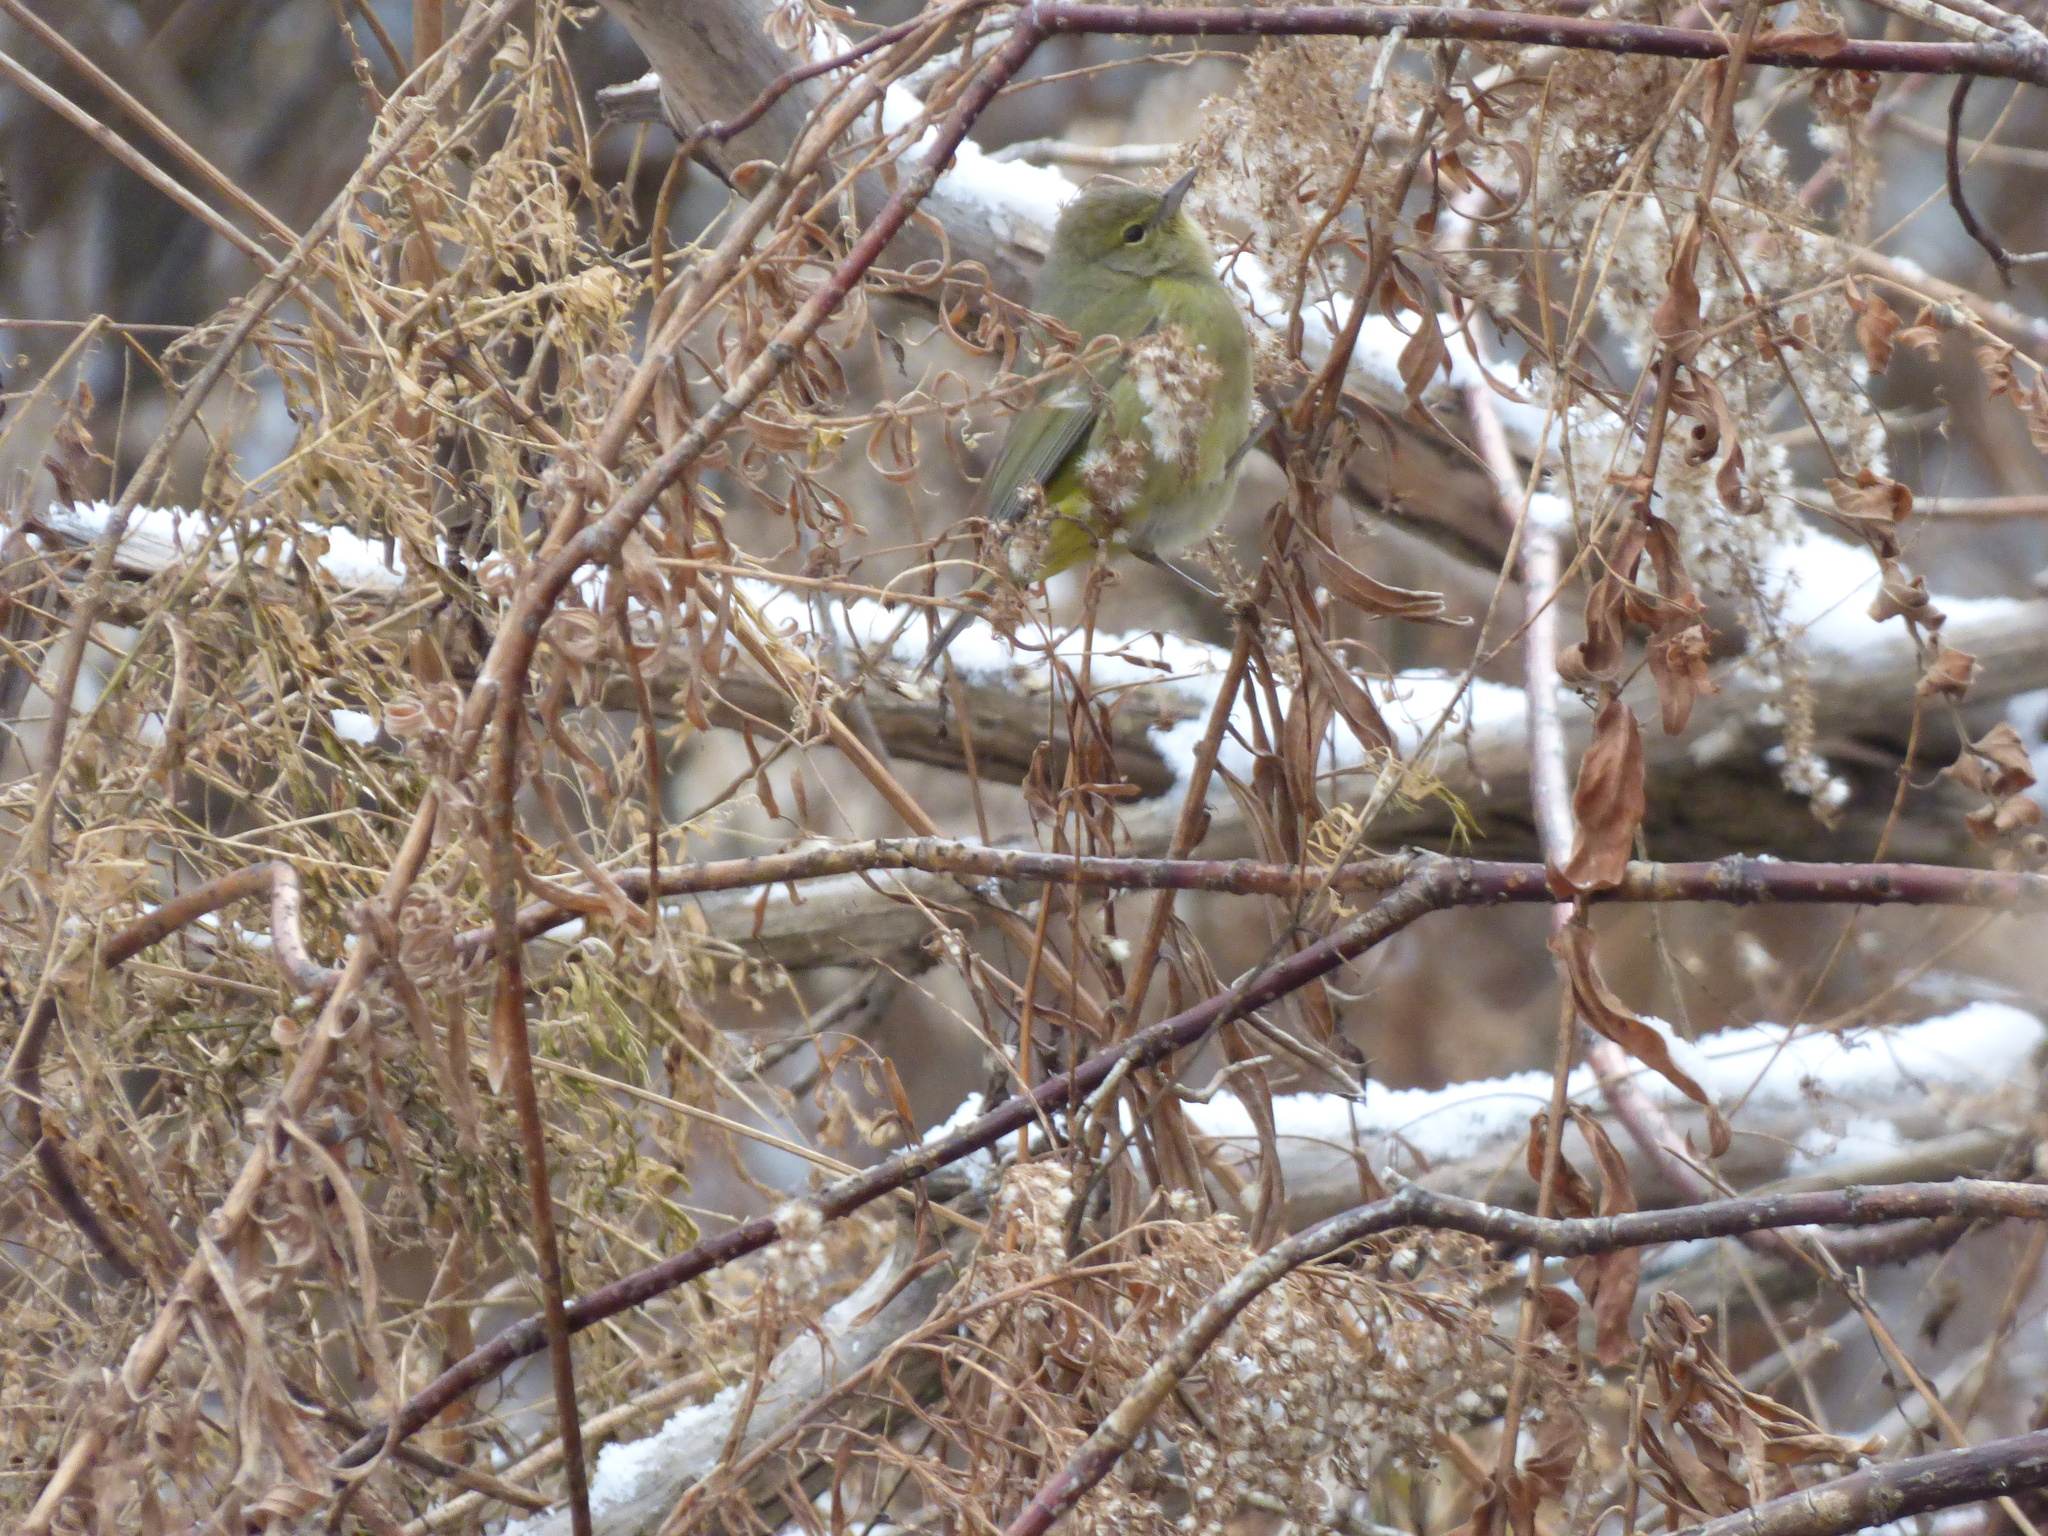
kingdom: Animalia
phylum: Chordata
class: Aves
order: Passeriformes
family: Parulidae
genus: Leiothlypis
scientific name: Leiothlypis celata
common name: Orange-crowned warbler
